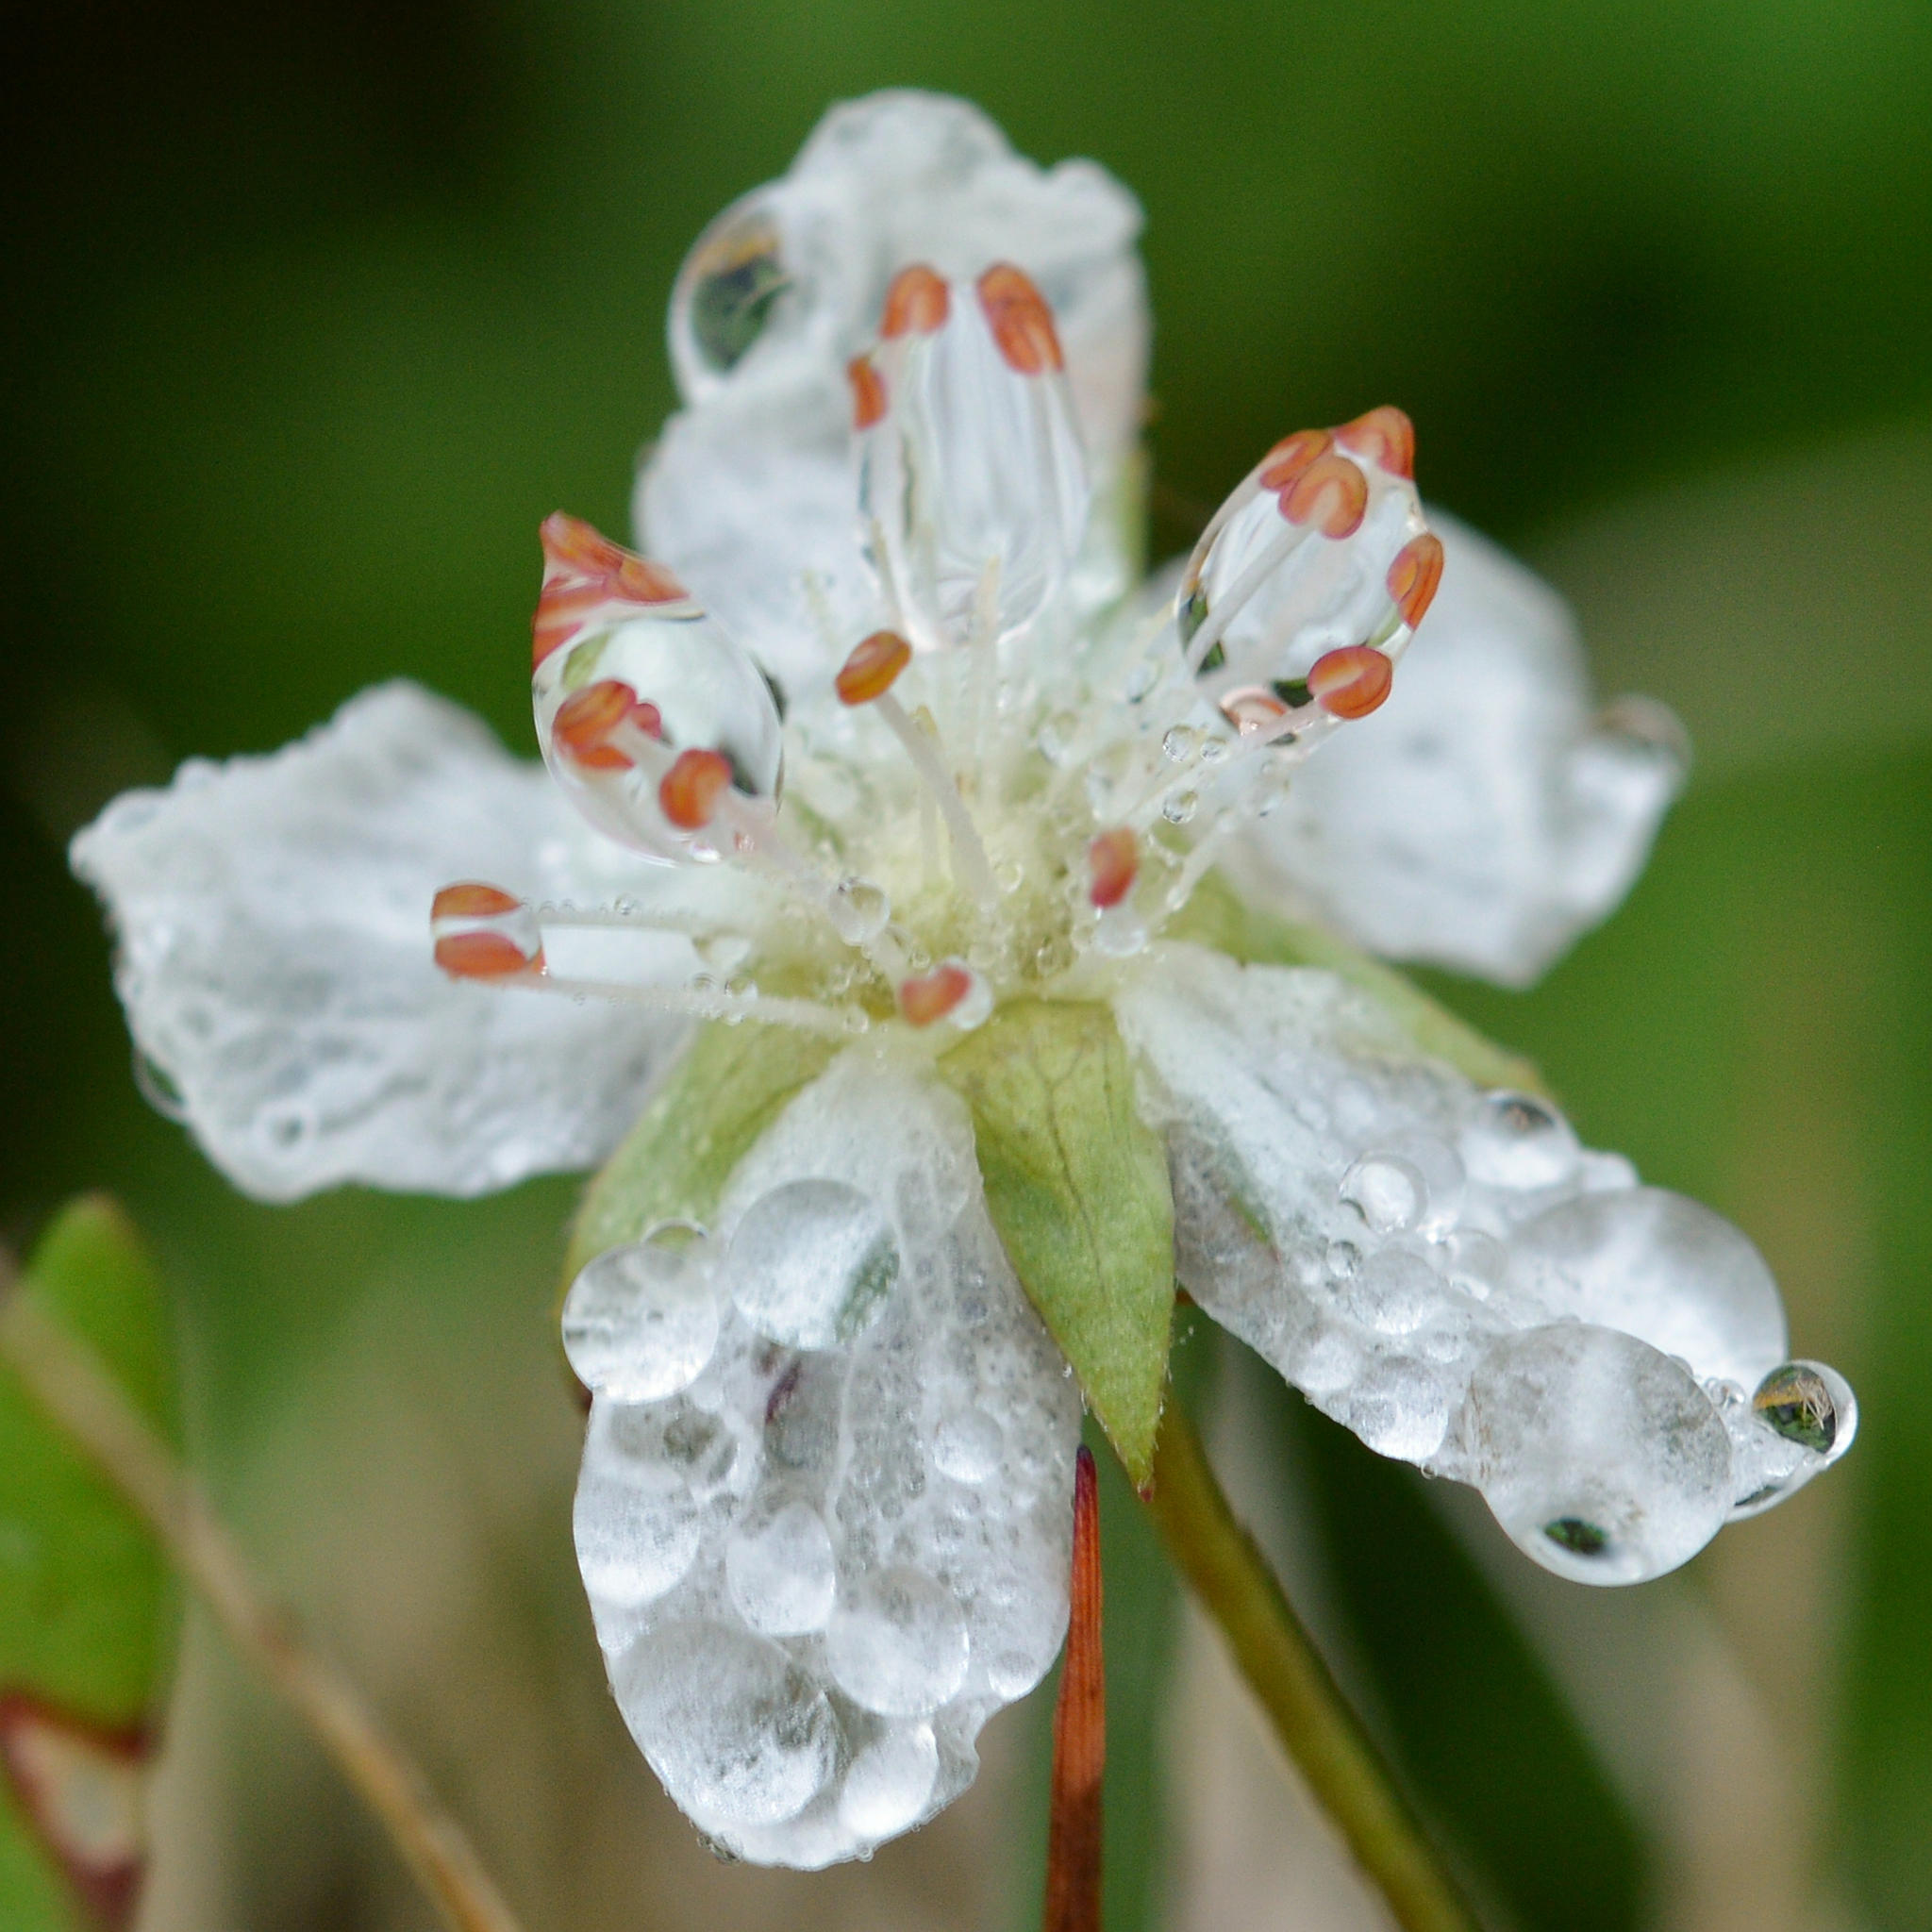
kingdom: Plantae
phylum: Tracheophyta
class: Magnoliopsida
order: Rosales
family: Rosaceae
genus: Sibbaldia
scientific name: Sibbaldia tridentata
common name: Three-toothed cinquefoil
